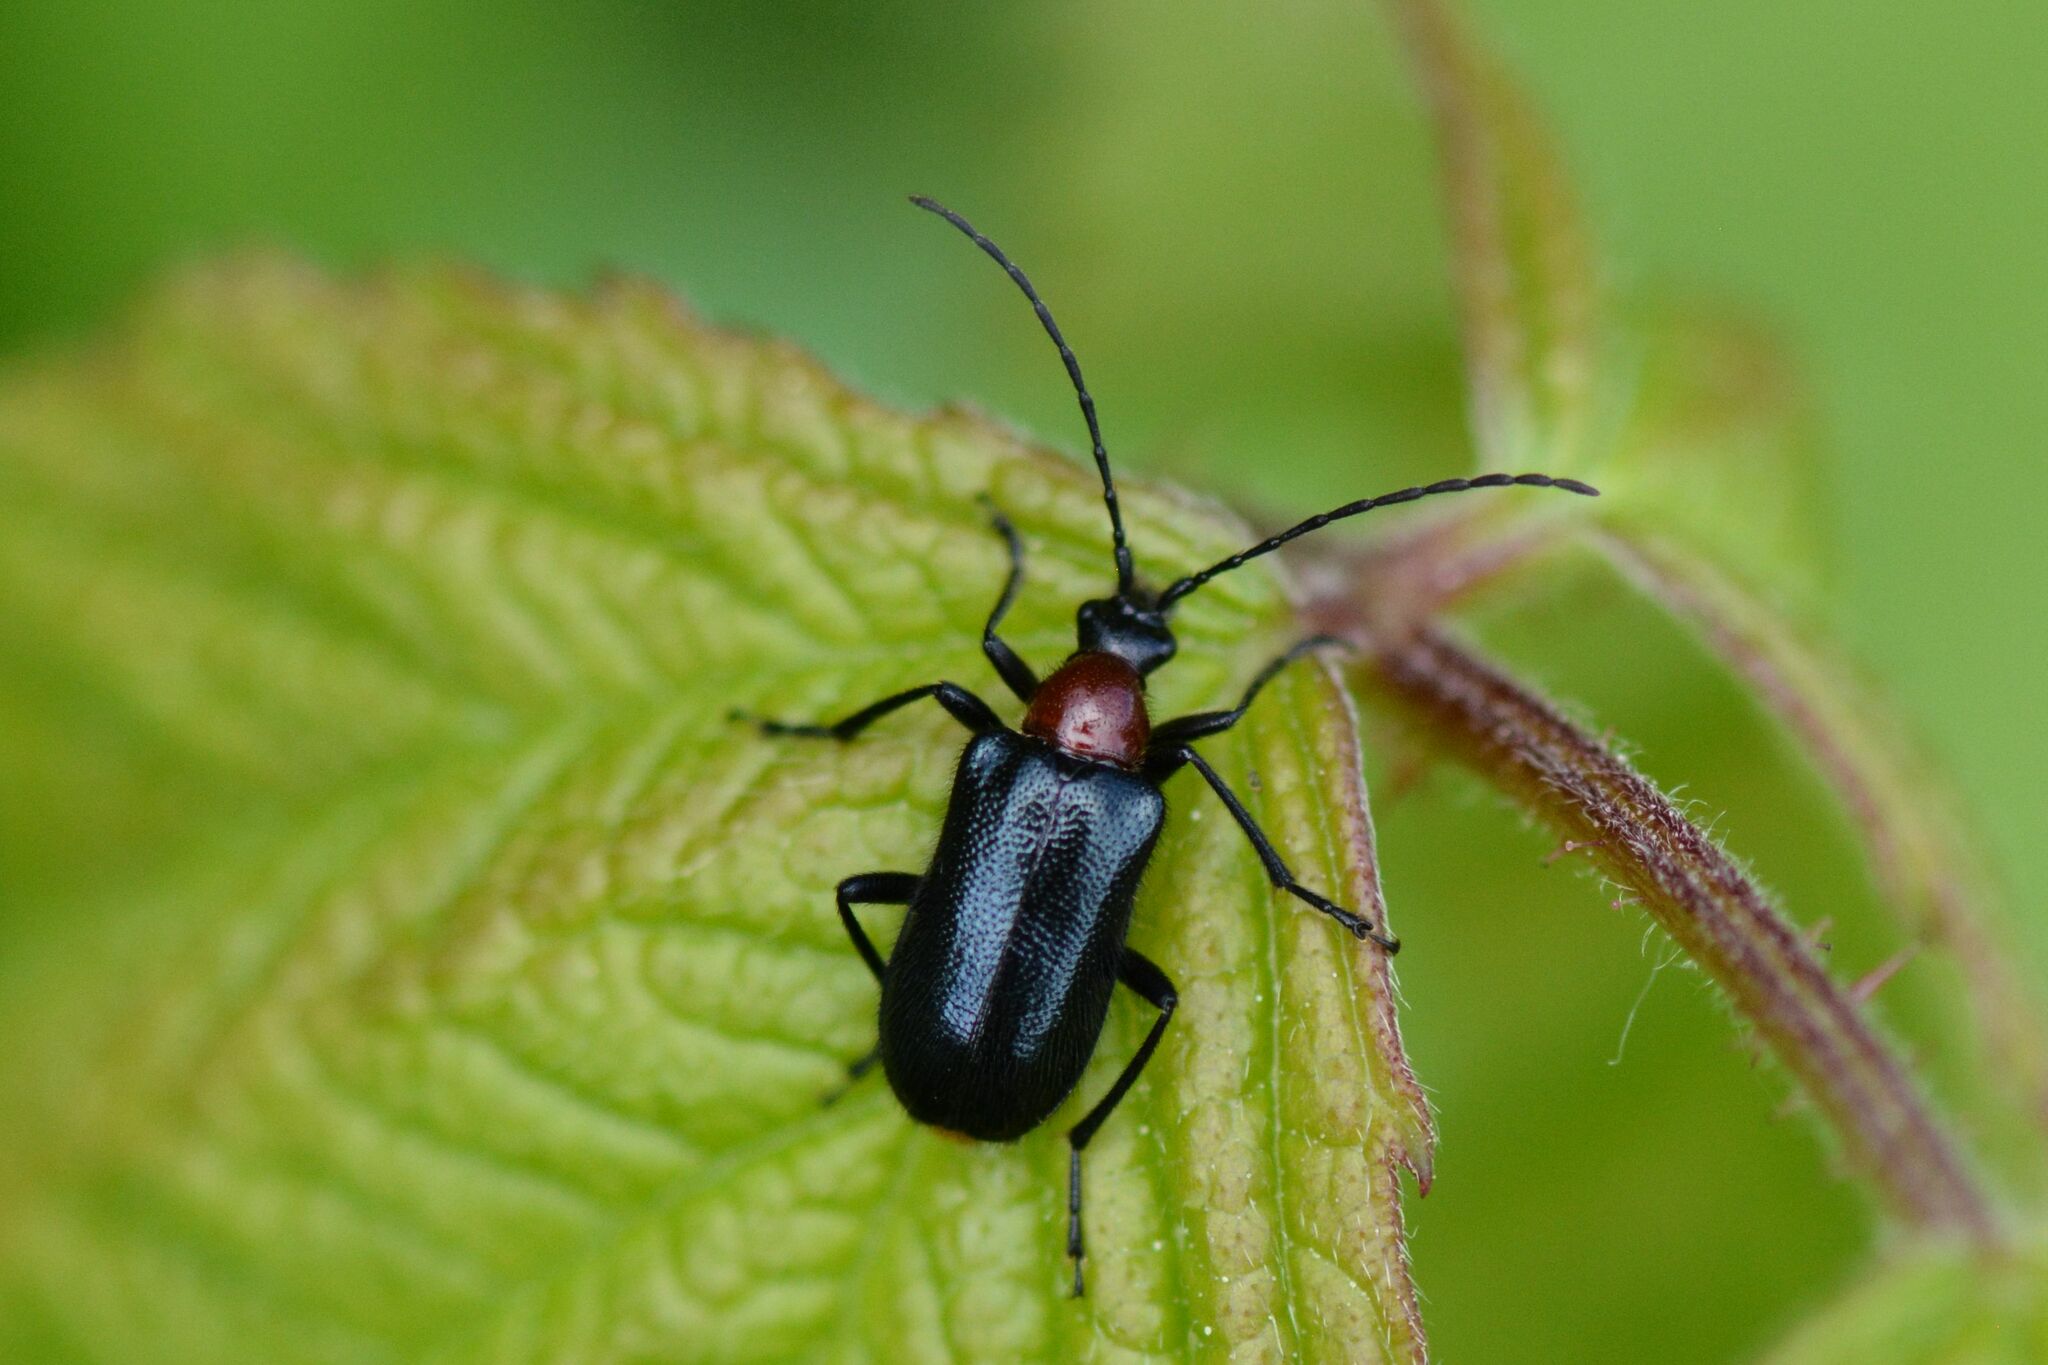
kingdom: Animalia
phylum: Arthropoda
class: Insecta
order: Coleoptera
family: Cerambycidae
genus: Dinoptera
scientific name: Dinoptera collaris
